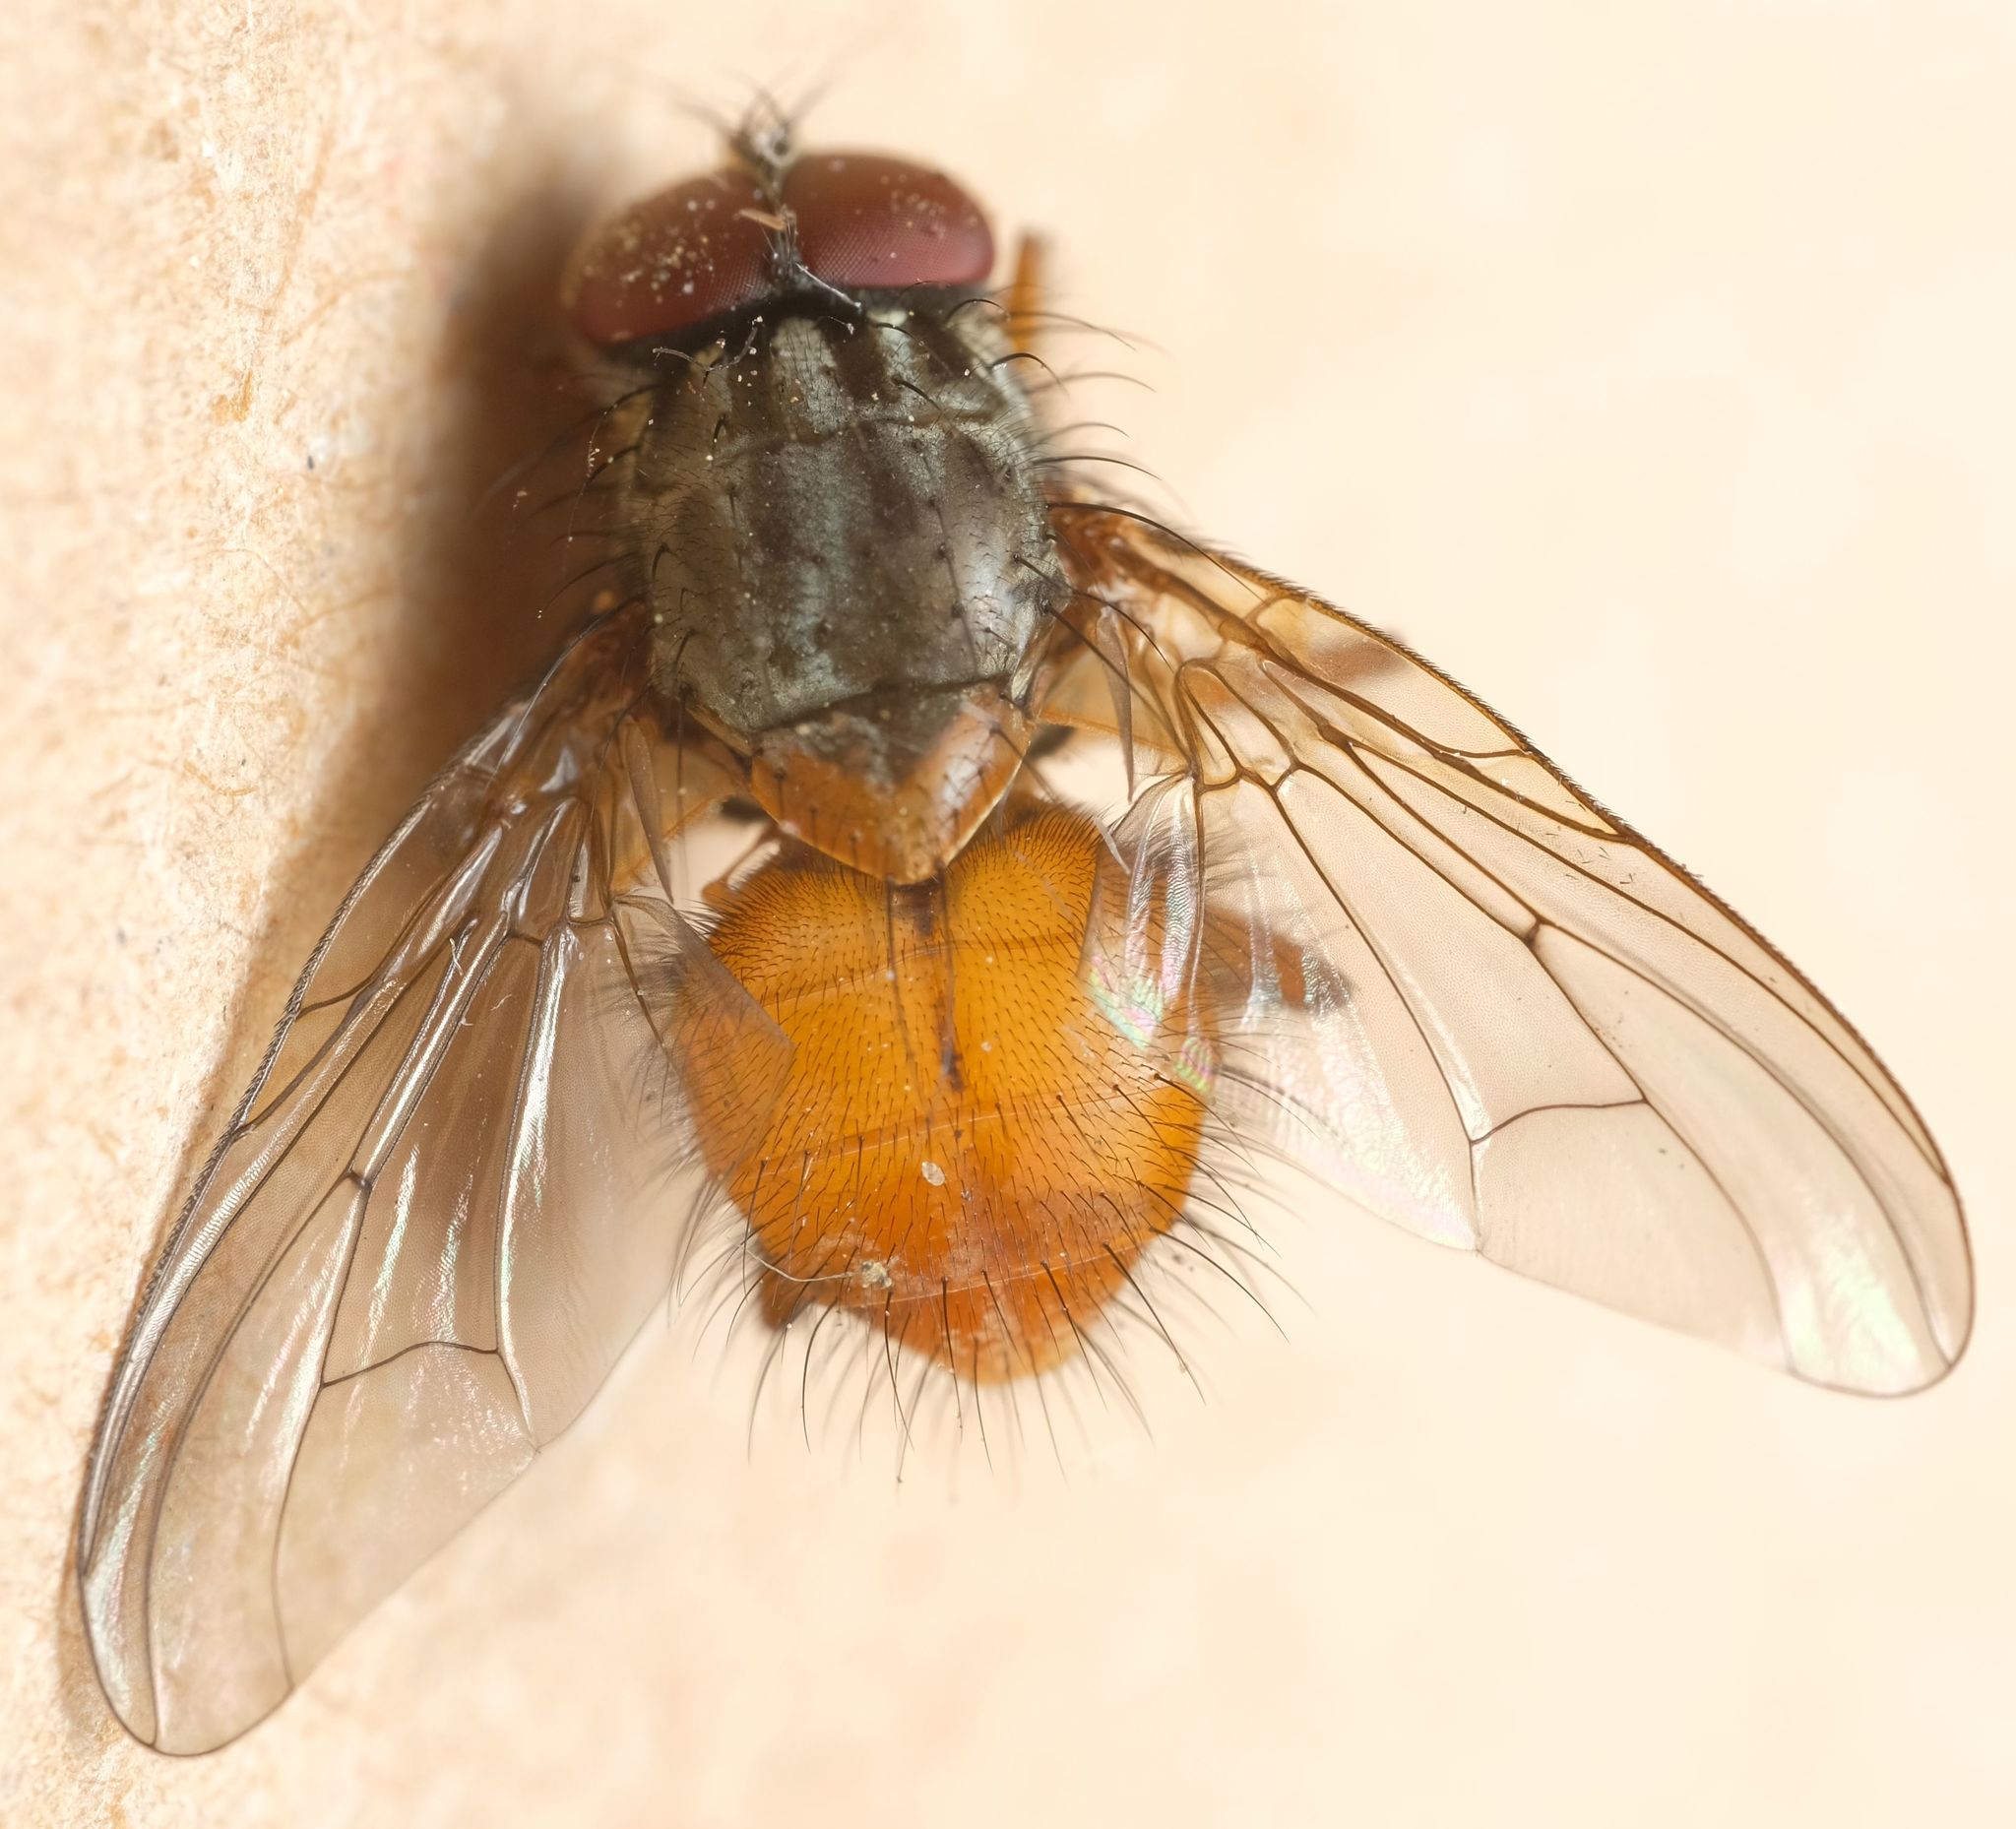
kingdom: Animalia
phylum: Arthropoda
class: Insecta
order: Diptera
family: Muscidae
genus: Phaonia
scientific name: Phaonia
